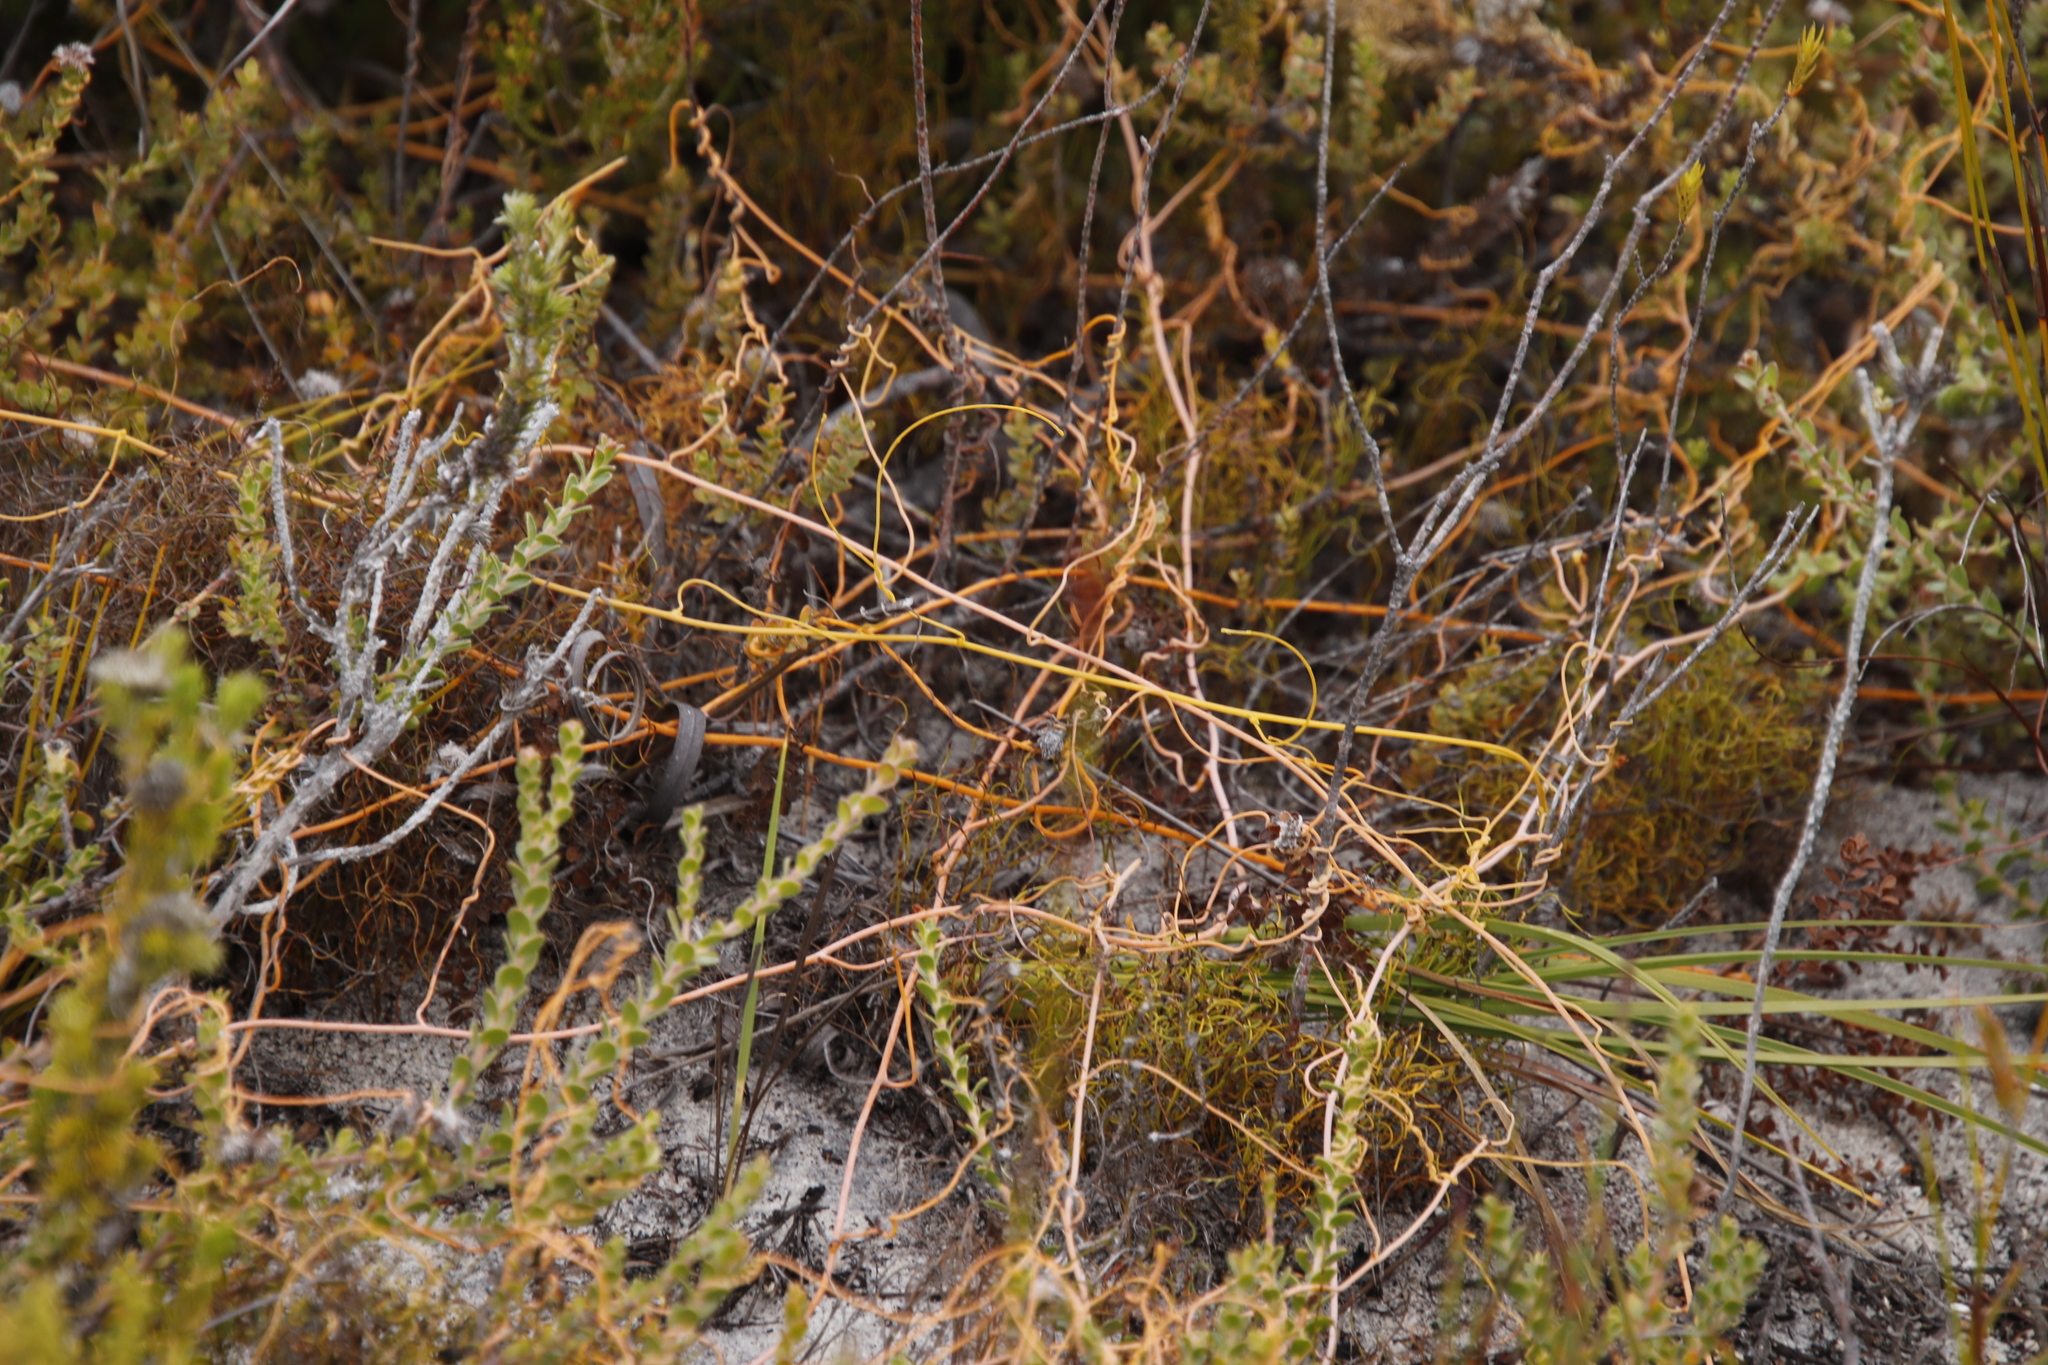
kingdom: Plantae
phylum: Tracheophyta
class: Magnoliopsida
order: Laurales
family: Lauraceae
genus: Cassytha
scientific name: Cassytha ciliolata
